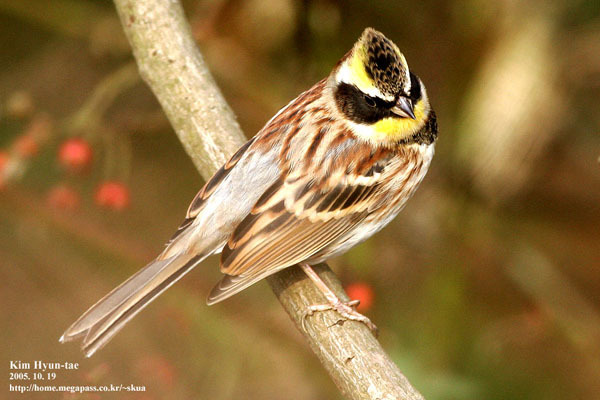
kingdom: Animalia
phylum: Chordata
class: Aves
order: Passeriformes
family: Emberizidae
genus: Emberiza
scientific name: Emberiza elegans
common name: Yellow-throated bunting
